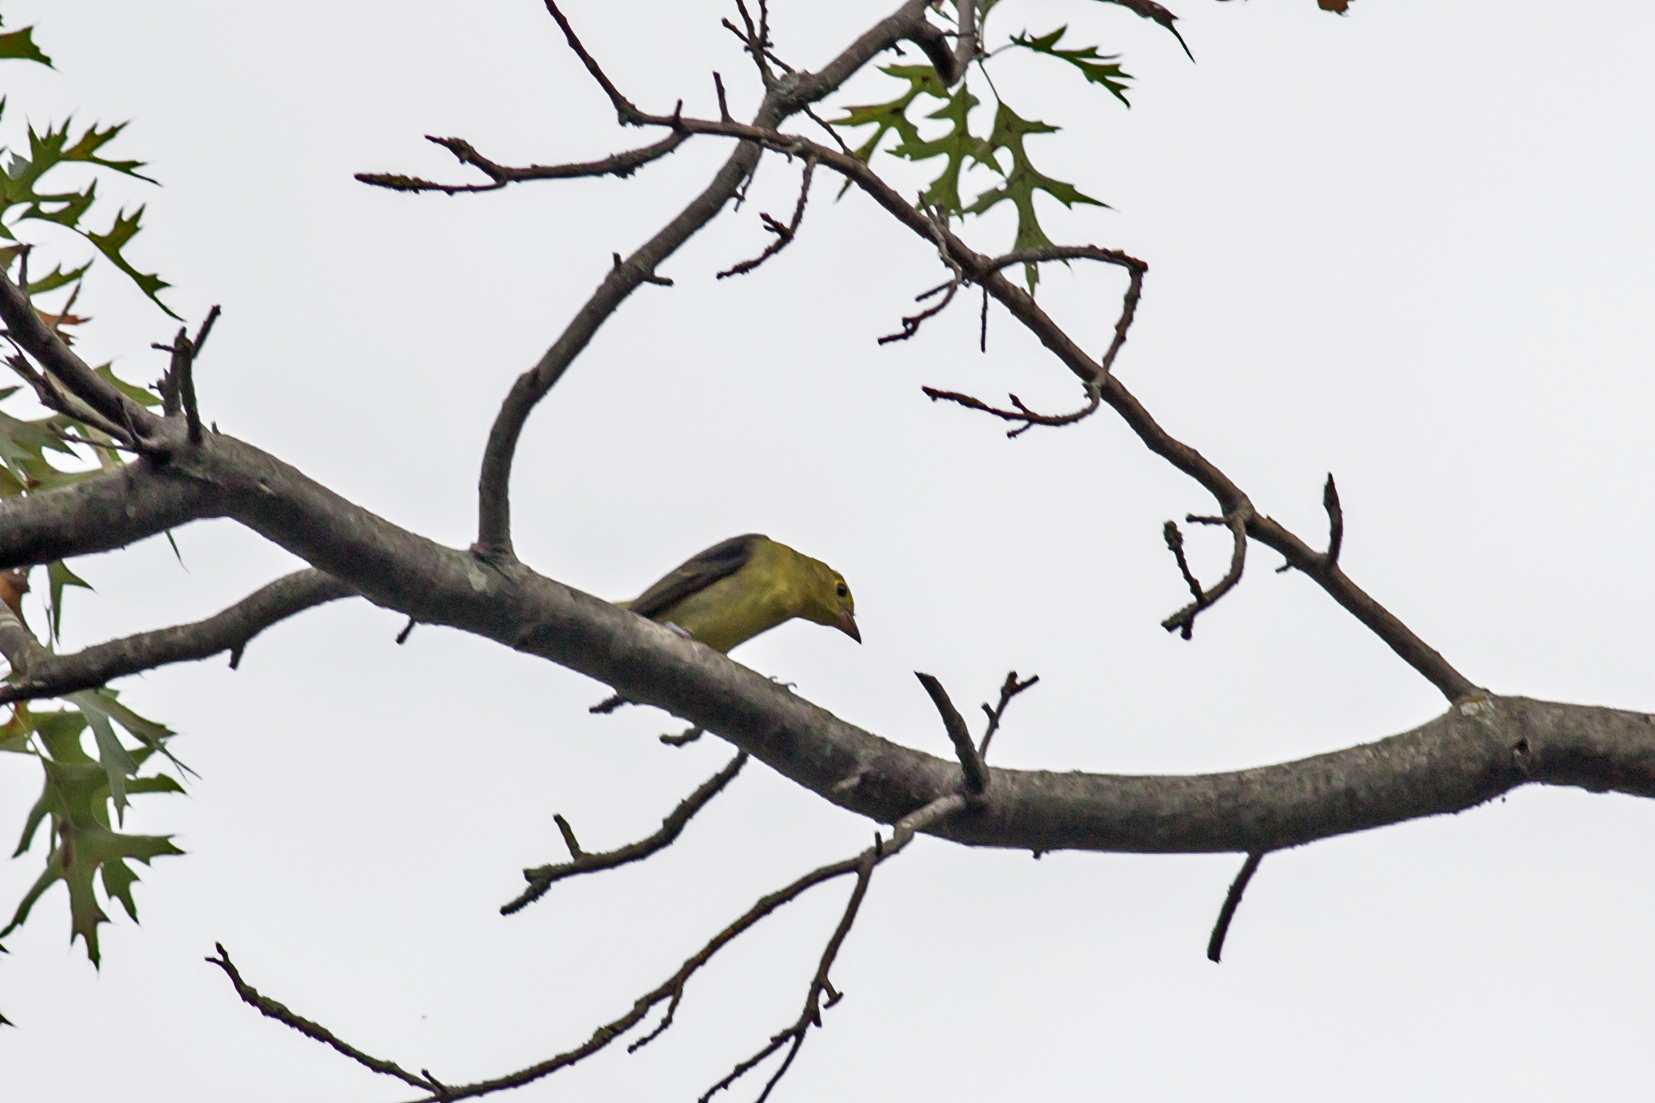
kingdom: Animalia
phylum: Chordata
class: Aves
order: Passeriformes
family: Cardinalidae
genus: Piranga
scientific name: Piranga olivacea
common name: Scarlet tanager
